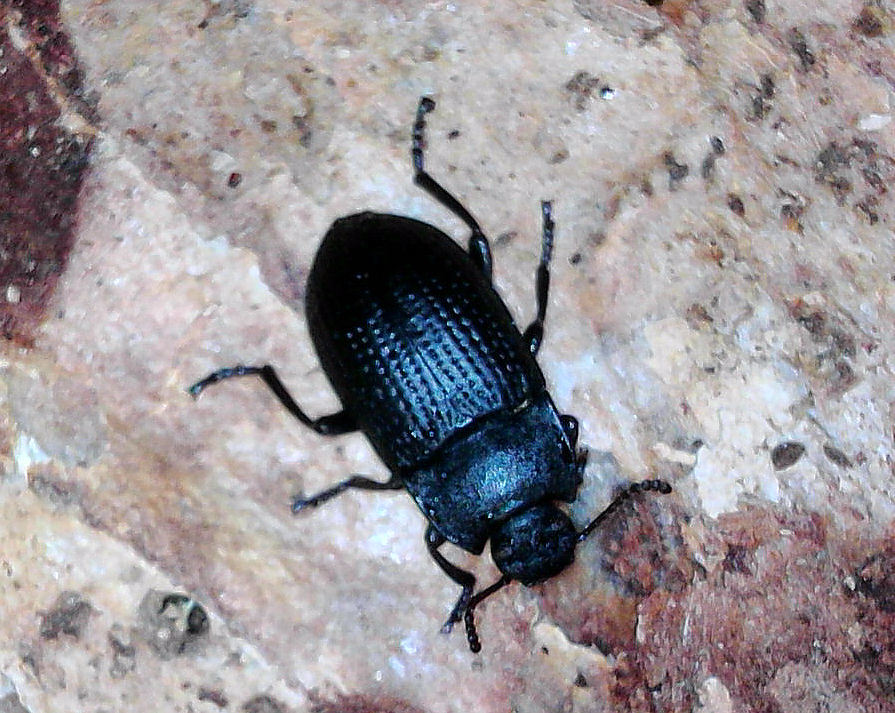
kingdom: Animalia
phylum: Arthropoda
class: Insecta
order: Coleoptera
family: Tenebrionidae
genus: Asiopus
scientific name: Asiopus
